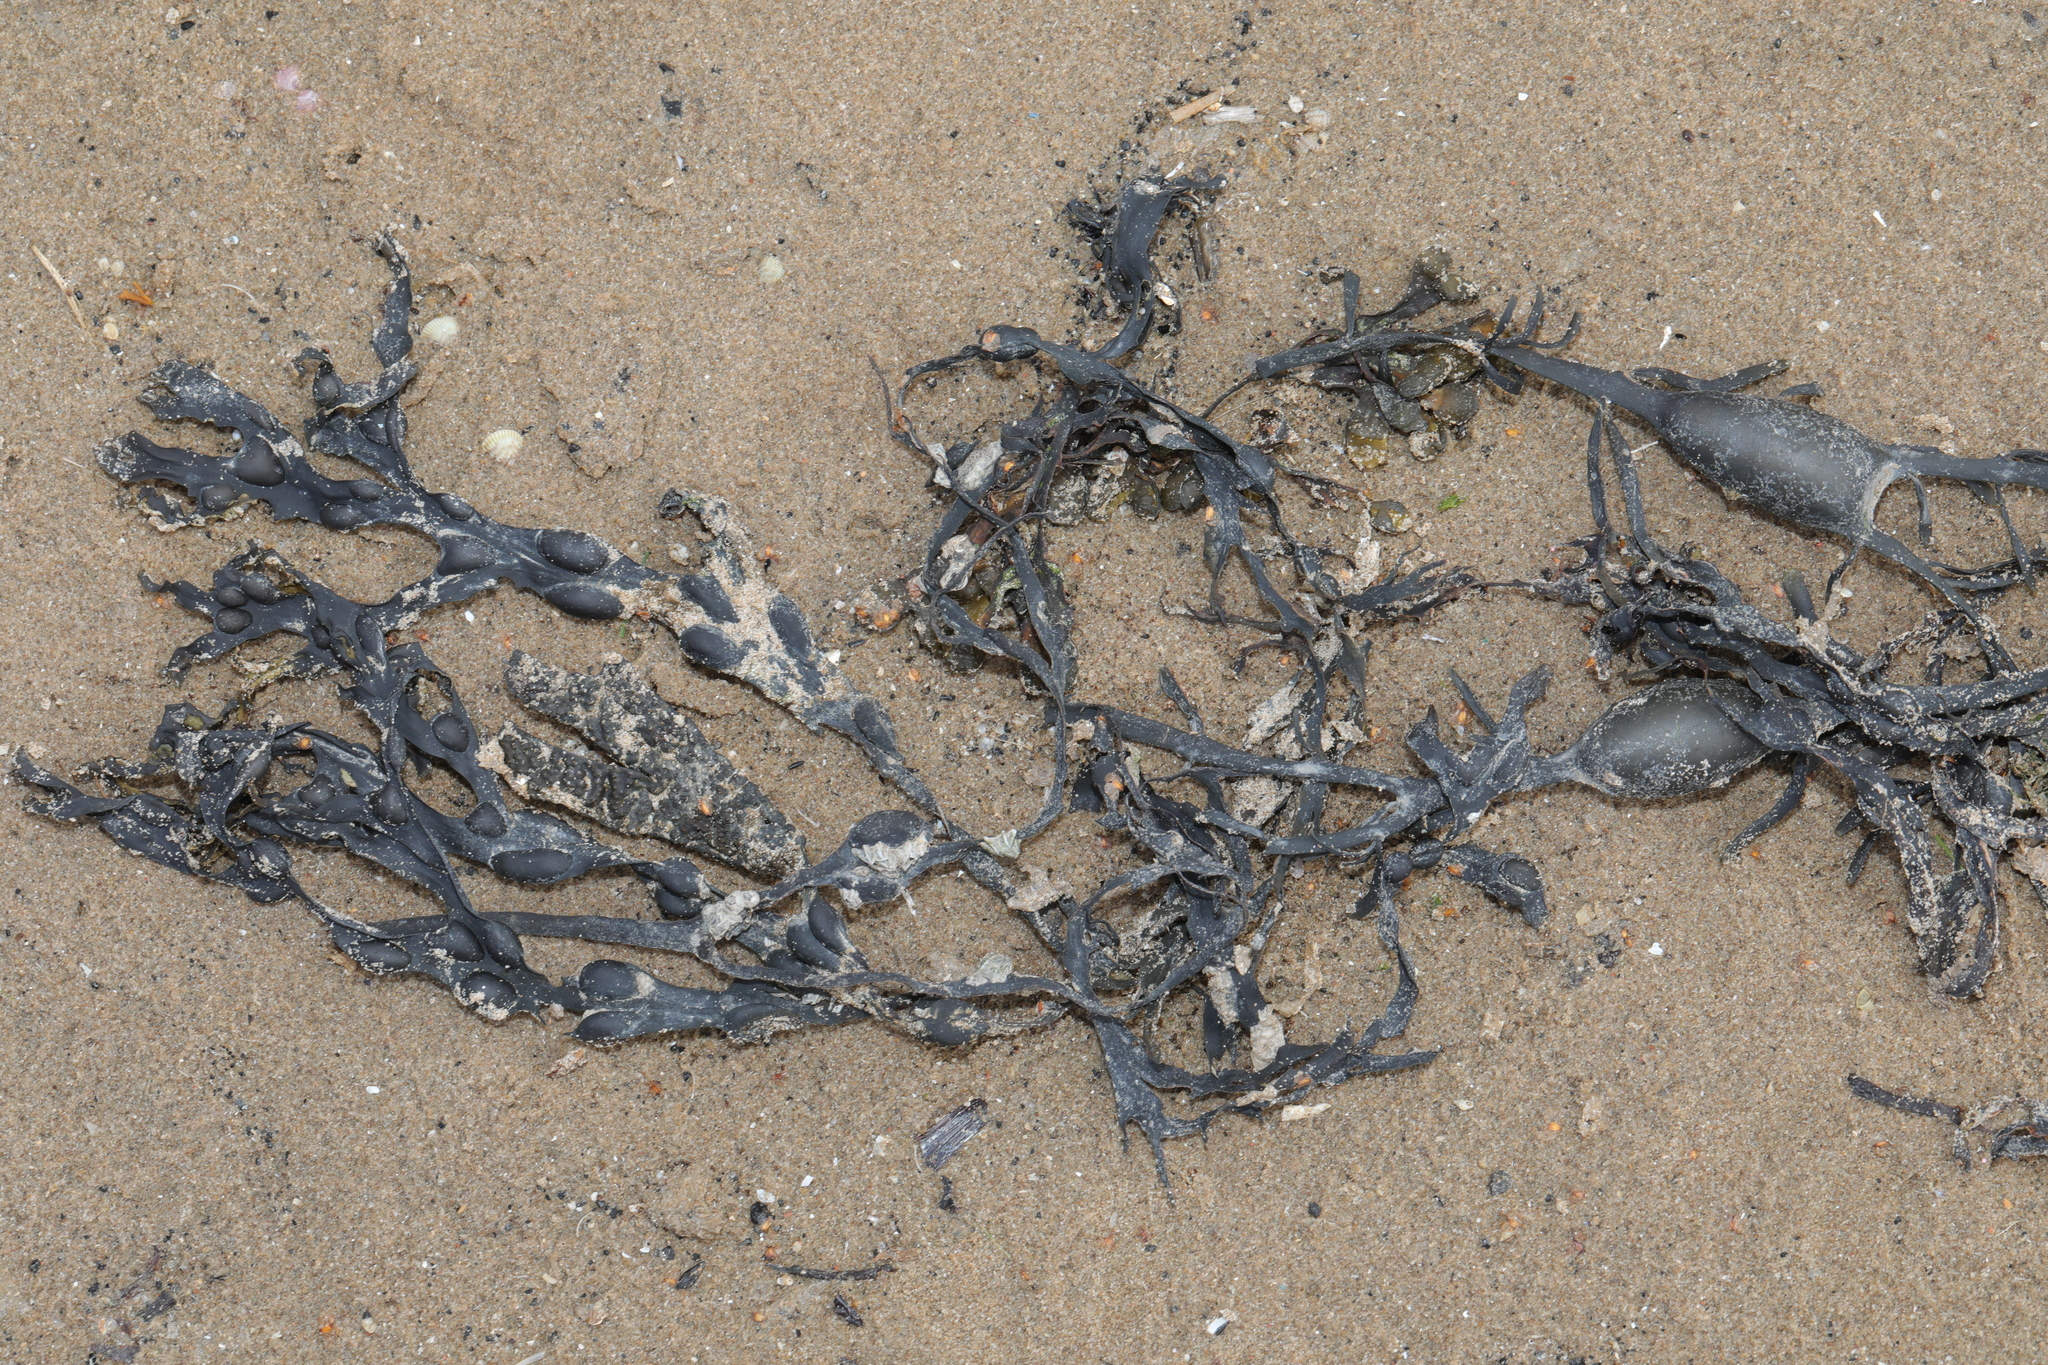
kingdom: Chromista
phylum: Ochrophyta
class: Phaeophyceae
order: Fucales
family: Fucaceae
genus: Fucus
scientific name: Fucus vesiculosus
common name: Bladder wrack
